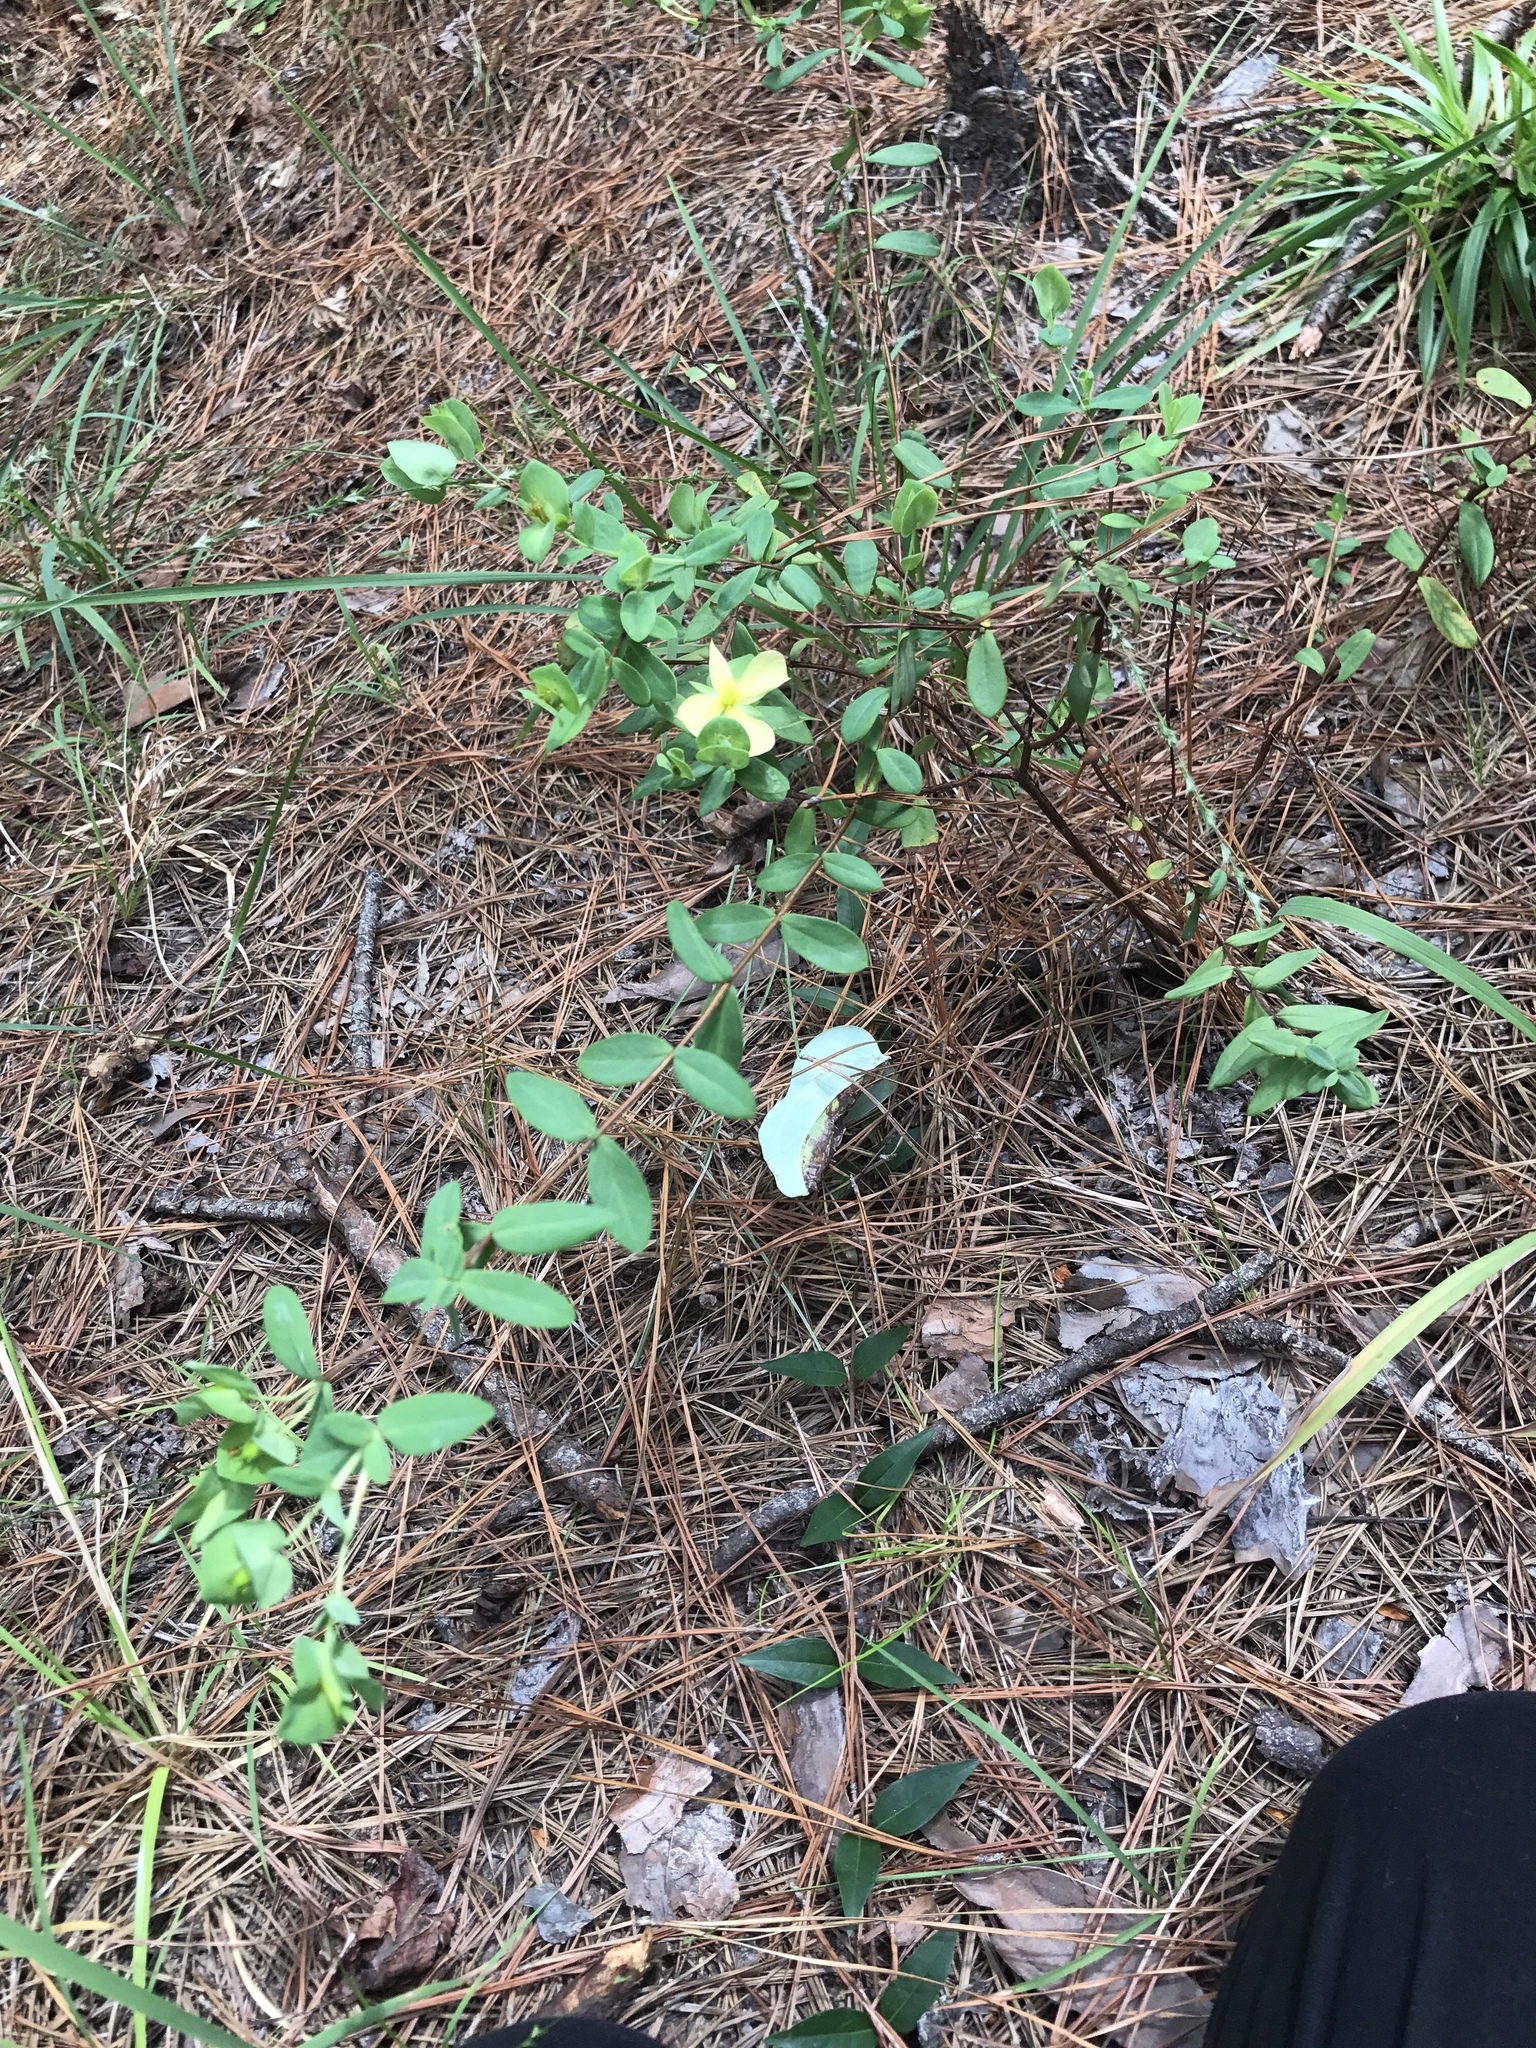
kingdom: Plantae
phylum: Tracheophyta
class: Magnoliopsida
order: Malpighiales
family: Hypericaceae
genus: Hypericum
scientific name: Hypericum crux-andreae
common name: St.-peter's-wort
